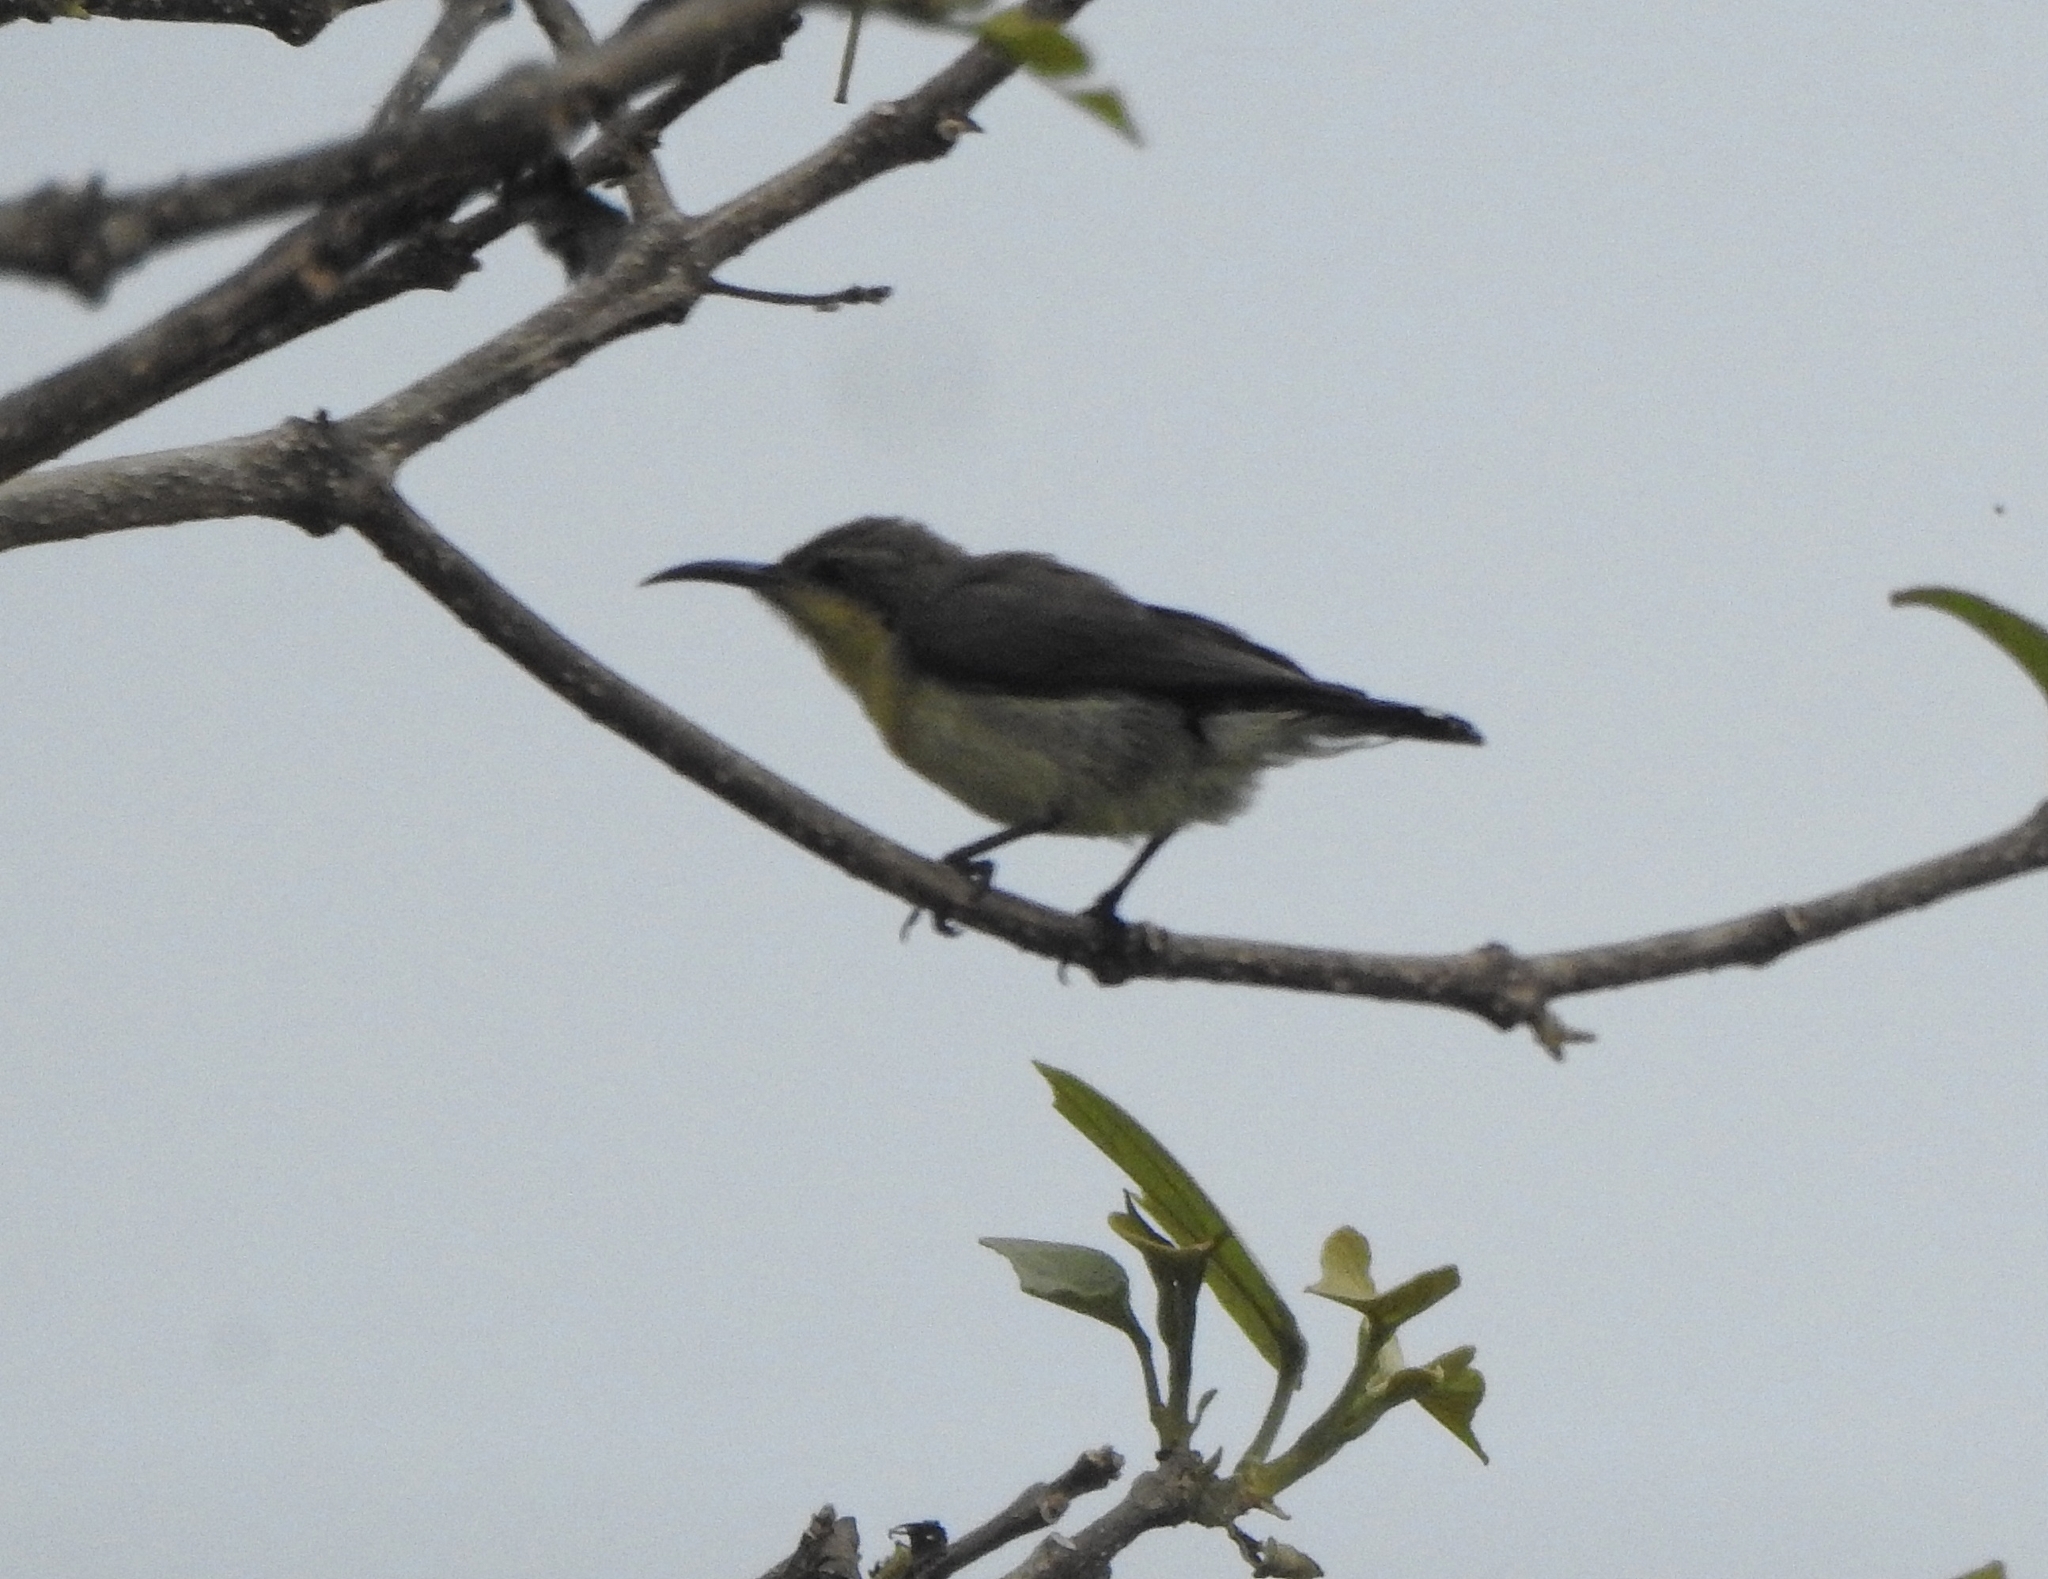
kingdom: Animalia
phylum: Chordata
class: Aves
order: Passeriformes
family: Nectariniidae
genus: Cinnyris
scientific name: Cinnyris asiaticus
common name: Purple sunbird
